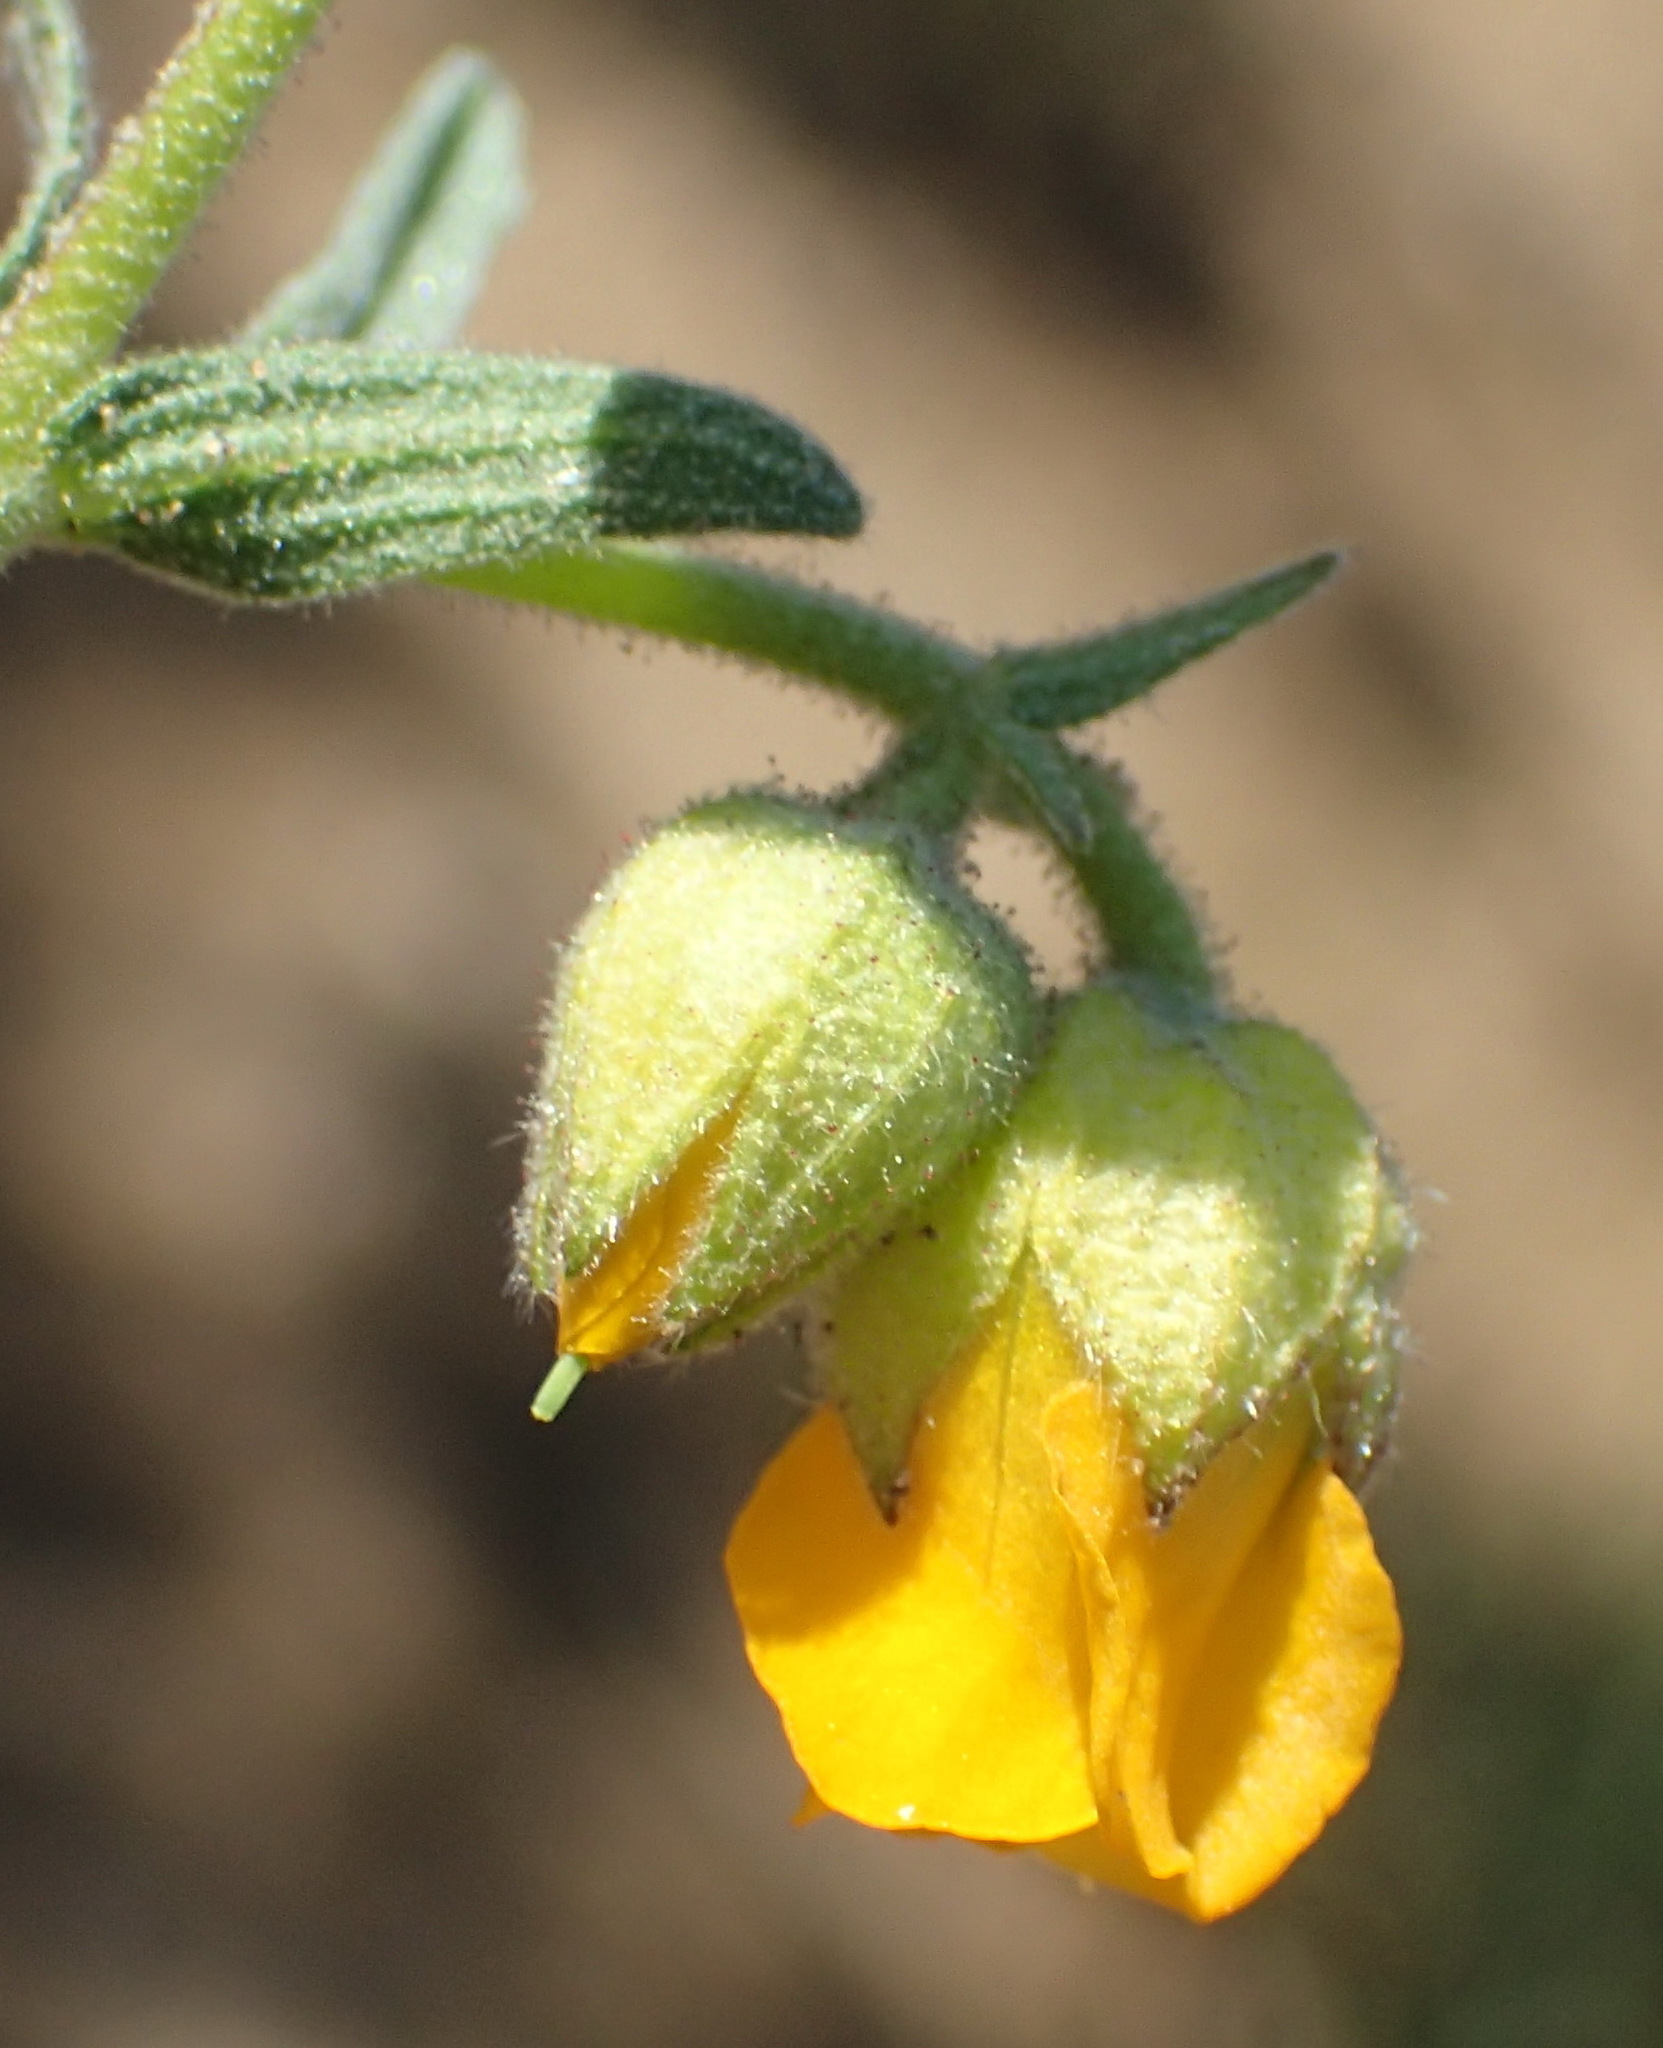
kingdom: Plantae
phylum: Tracheophyta
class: Magnoliopsida
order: Malvales
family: Malvaceae
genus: Hermannia
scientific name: Hermannia althaeifolia
